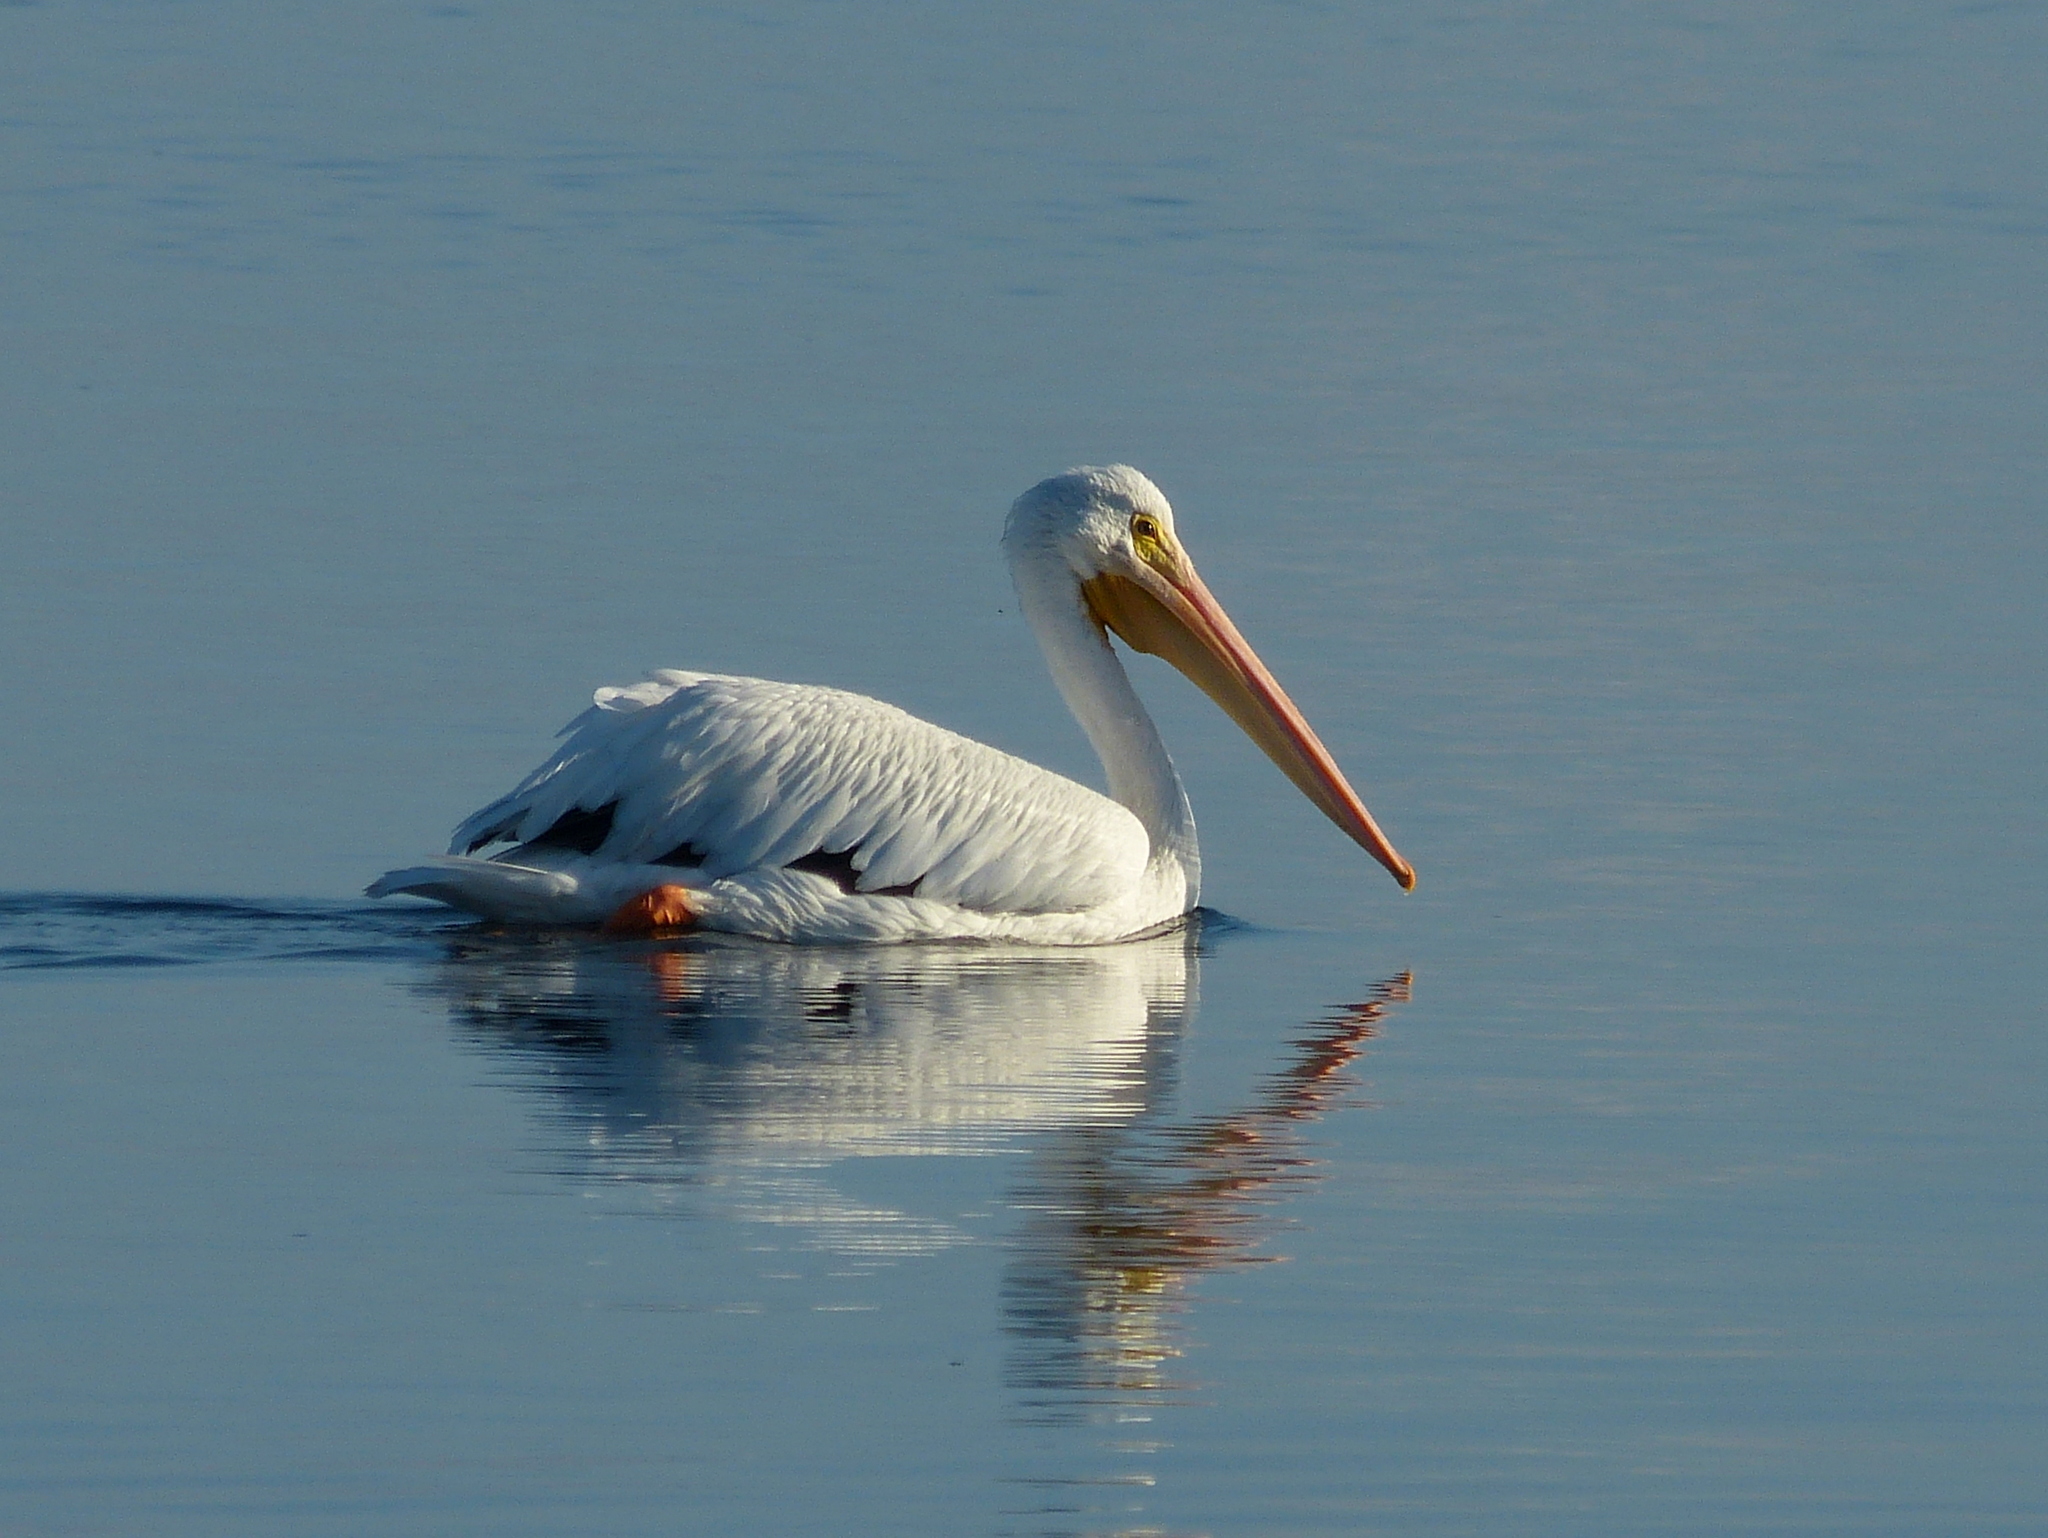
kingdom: Animalia
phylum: Chordata
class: Aves
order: Pelecaniformes
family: Pelecanidae
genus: Pelecanus
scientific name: Pelecanus erythrorhynchos
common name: American white pelican
